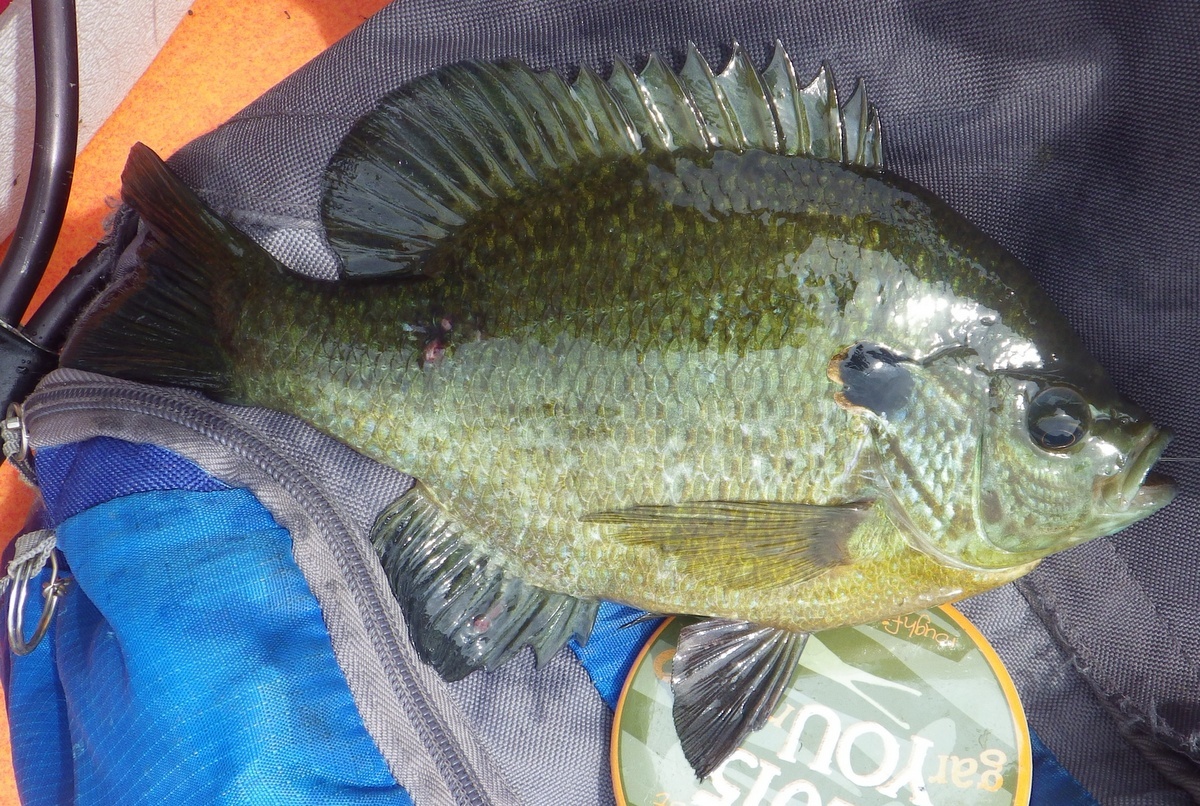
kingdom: Animalia
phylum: Chordata
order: Perciformes
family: Centrarchidae
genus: Lepomis
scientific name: Lepomis microlophus
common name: Redear sunfish
